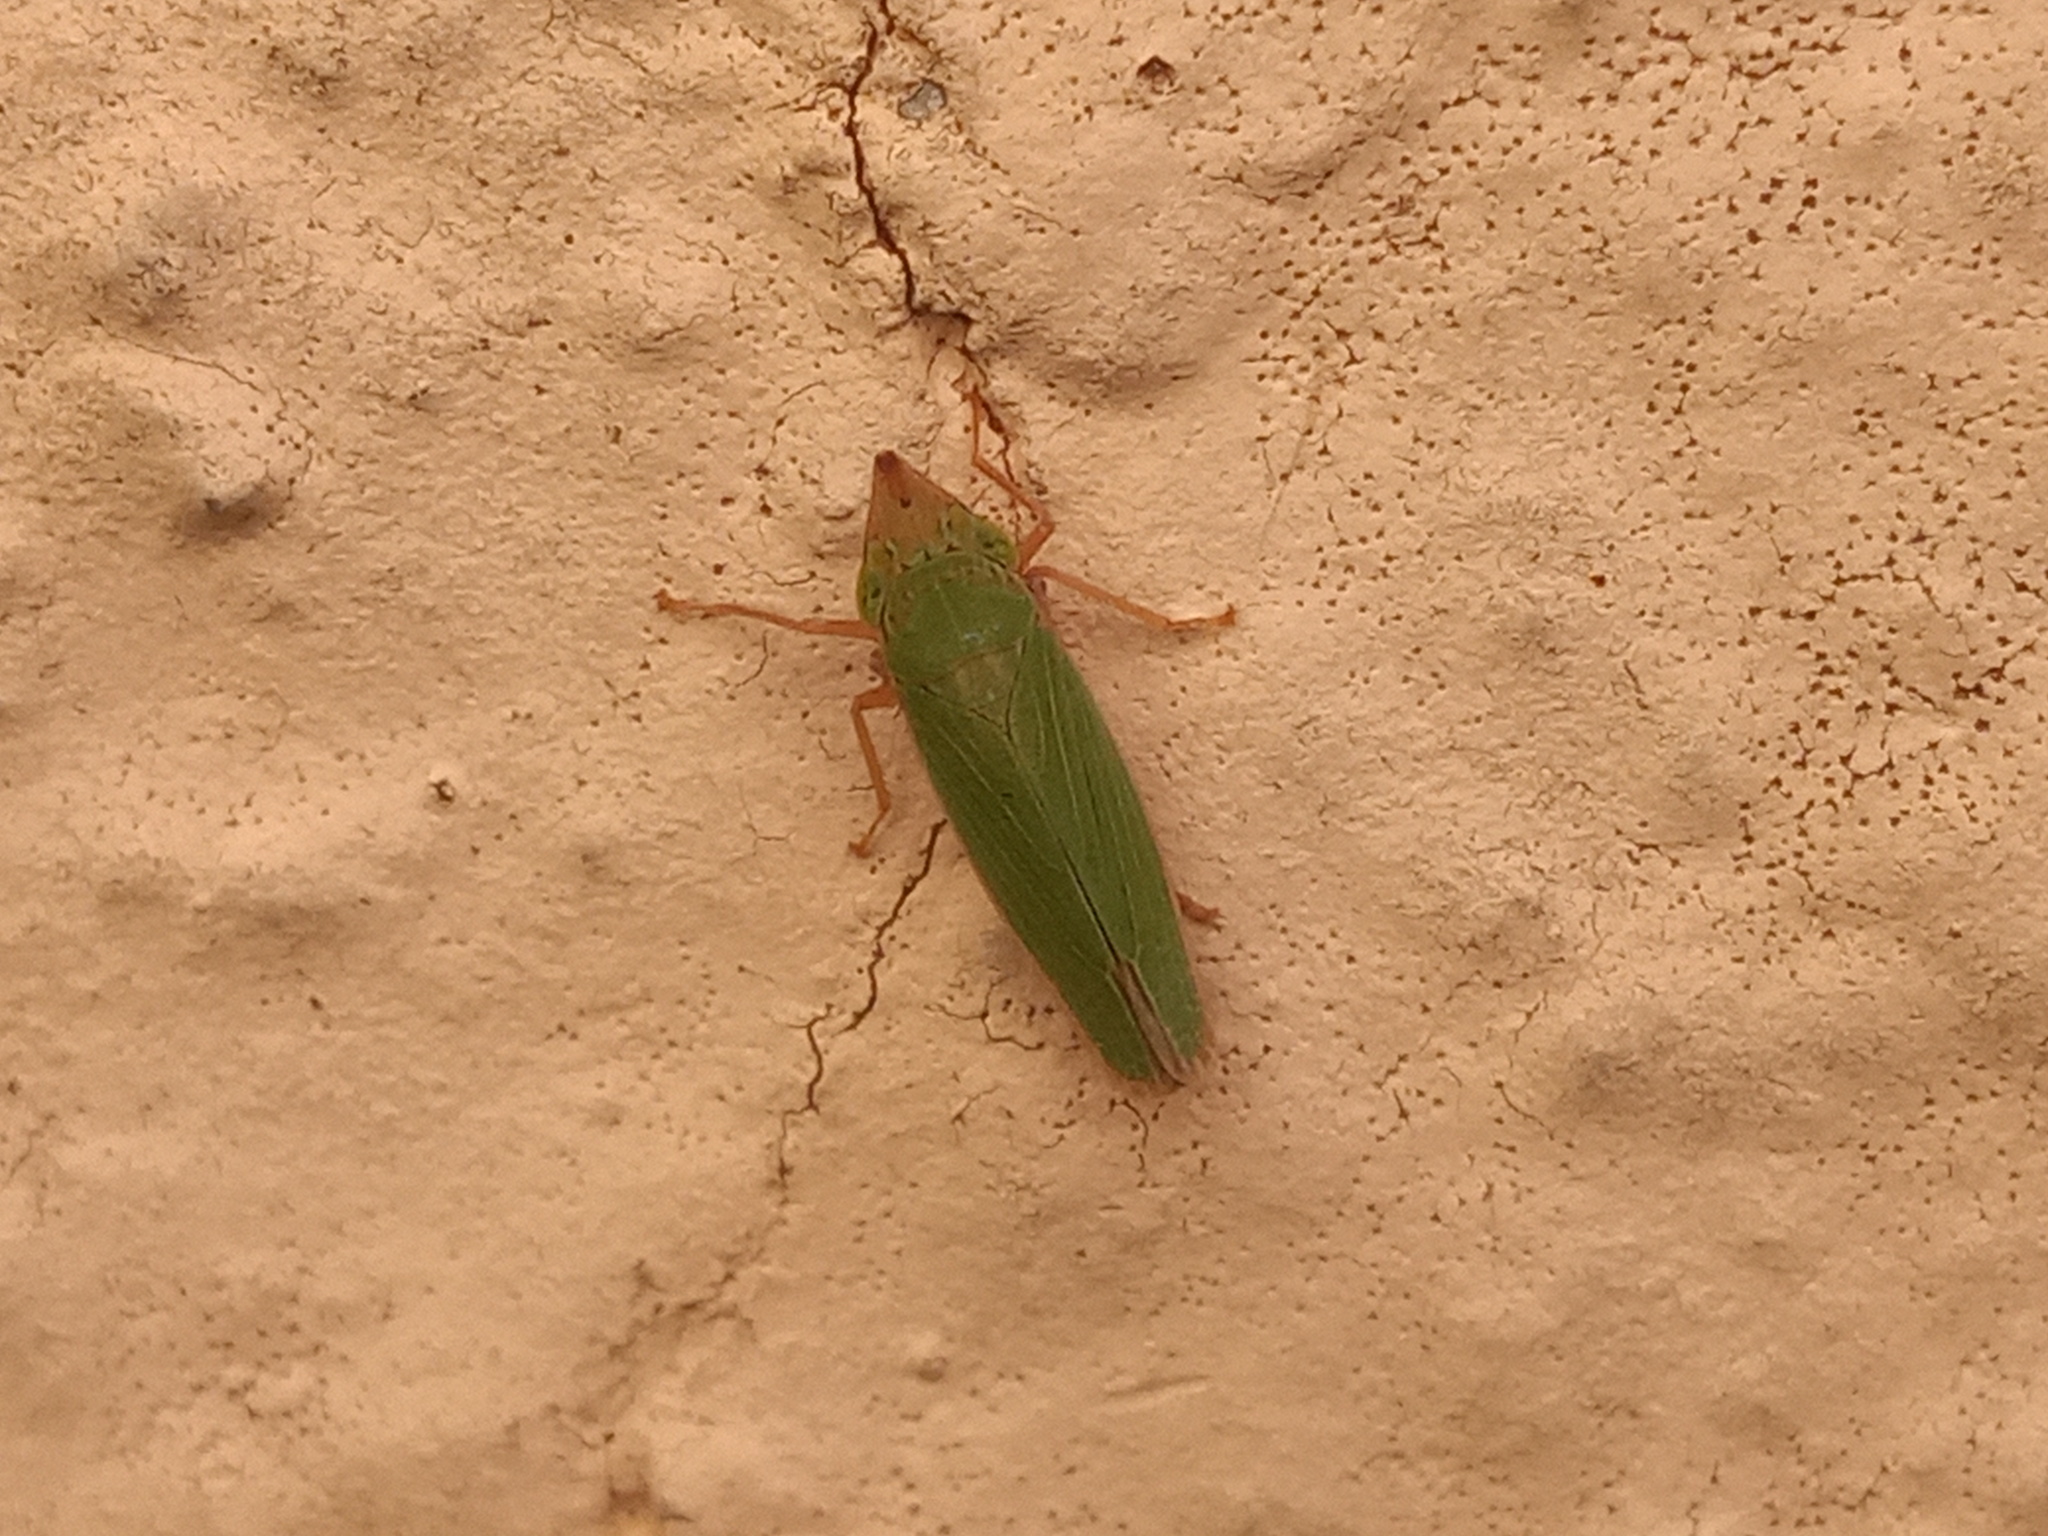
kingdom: Animalia
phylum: Arthropoda
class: Insecta
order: Hemiptera
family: Cicadellidae
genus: Draeculacephala
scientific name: Draeculacephala soluta
